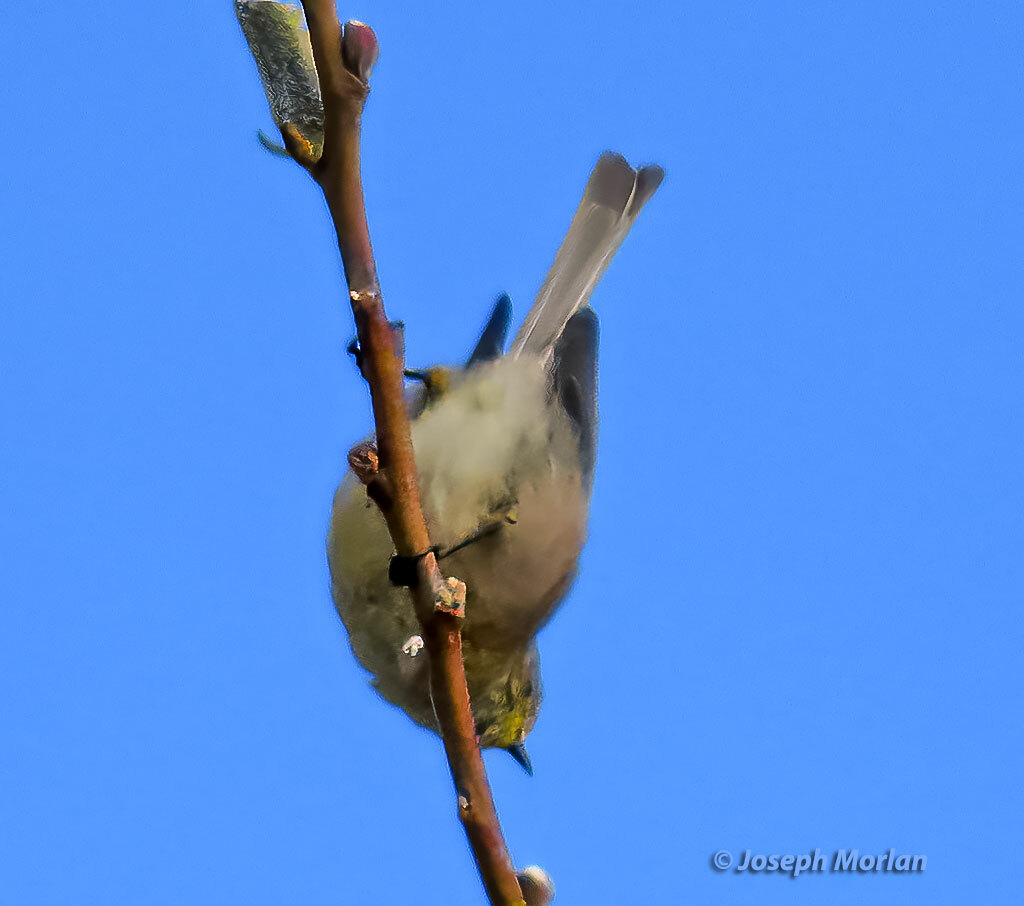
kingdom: Animalia
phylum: Chordata
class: Aves
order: Passeriformes
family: Aegithalidae
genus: Psaltriparus
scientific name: Psaltriparus minimus
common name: American bushtit
